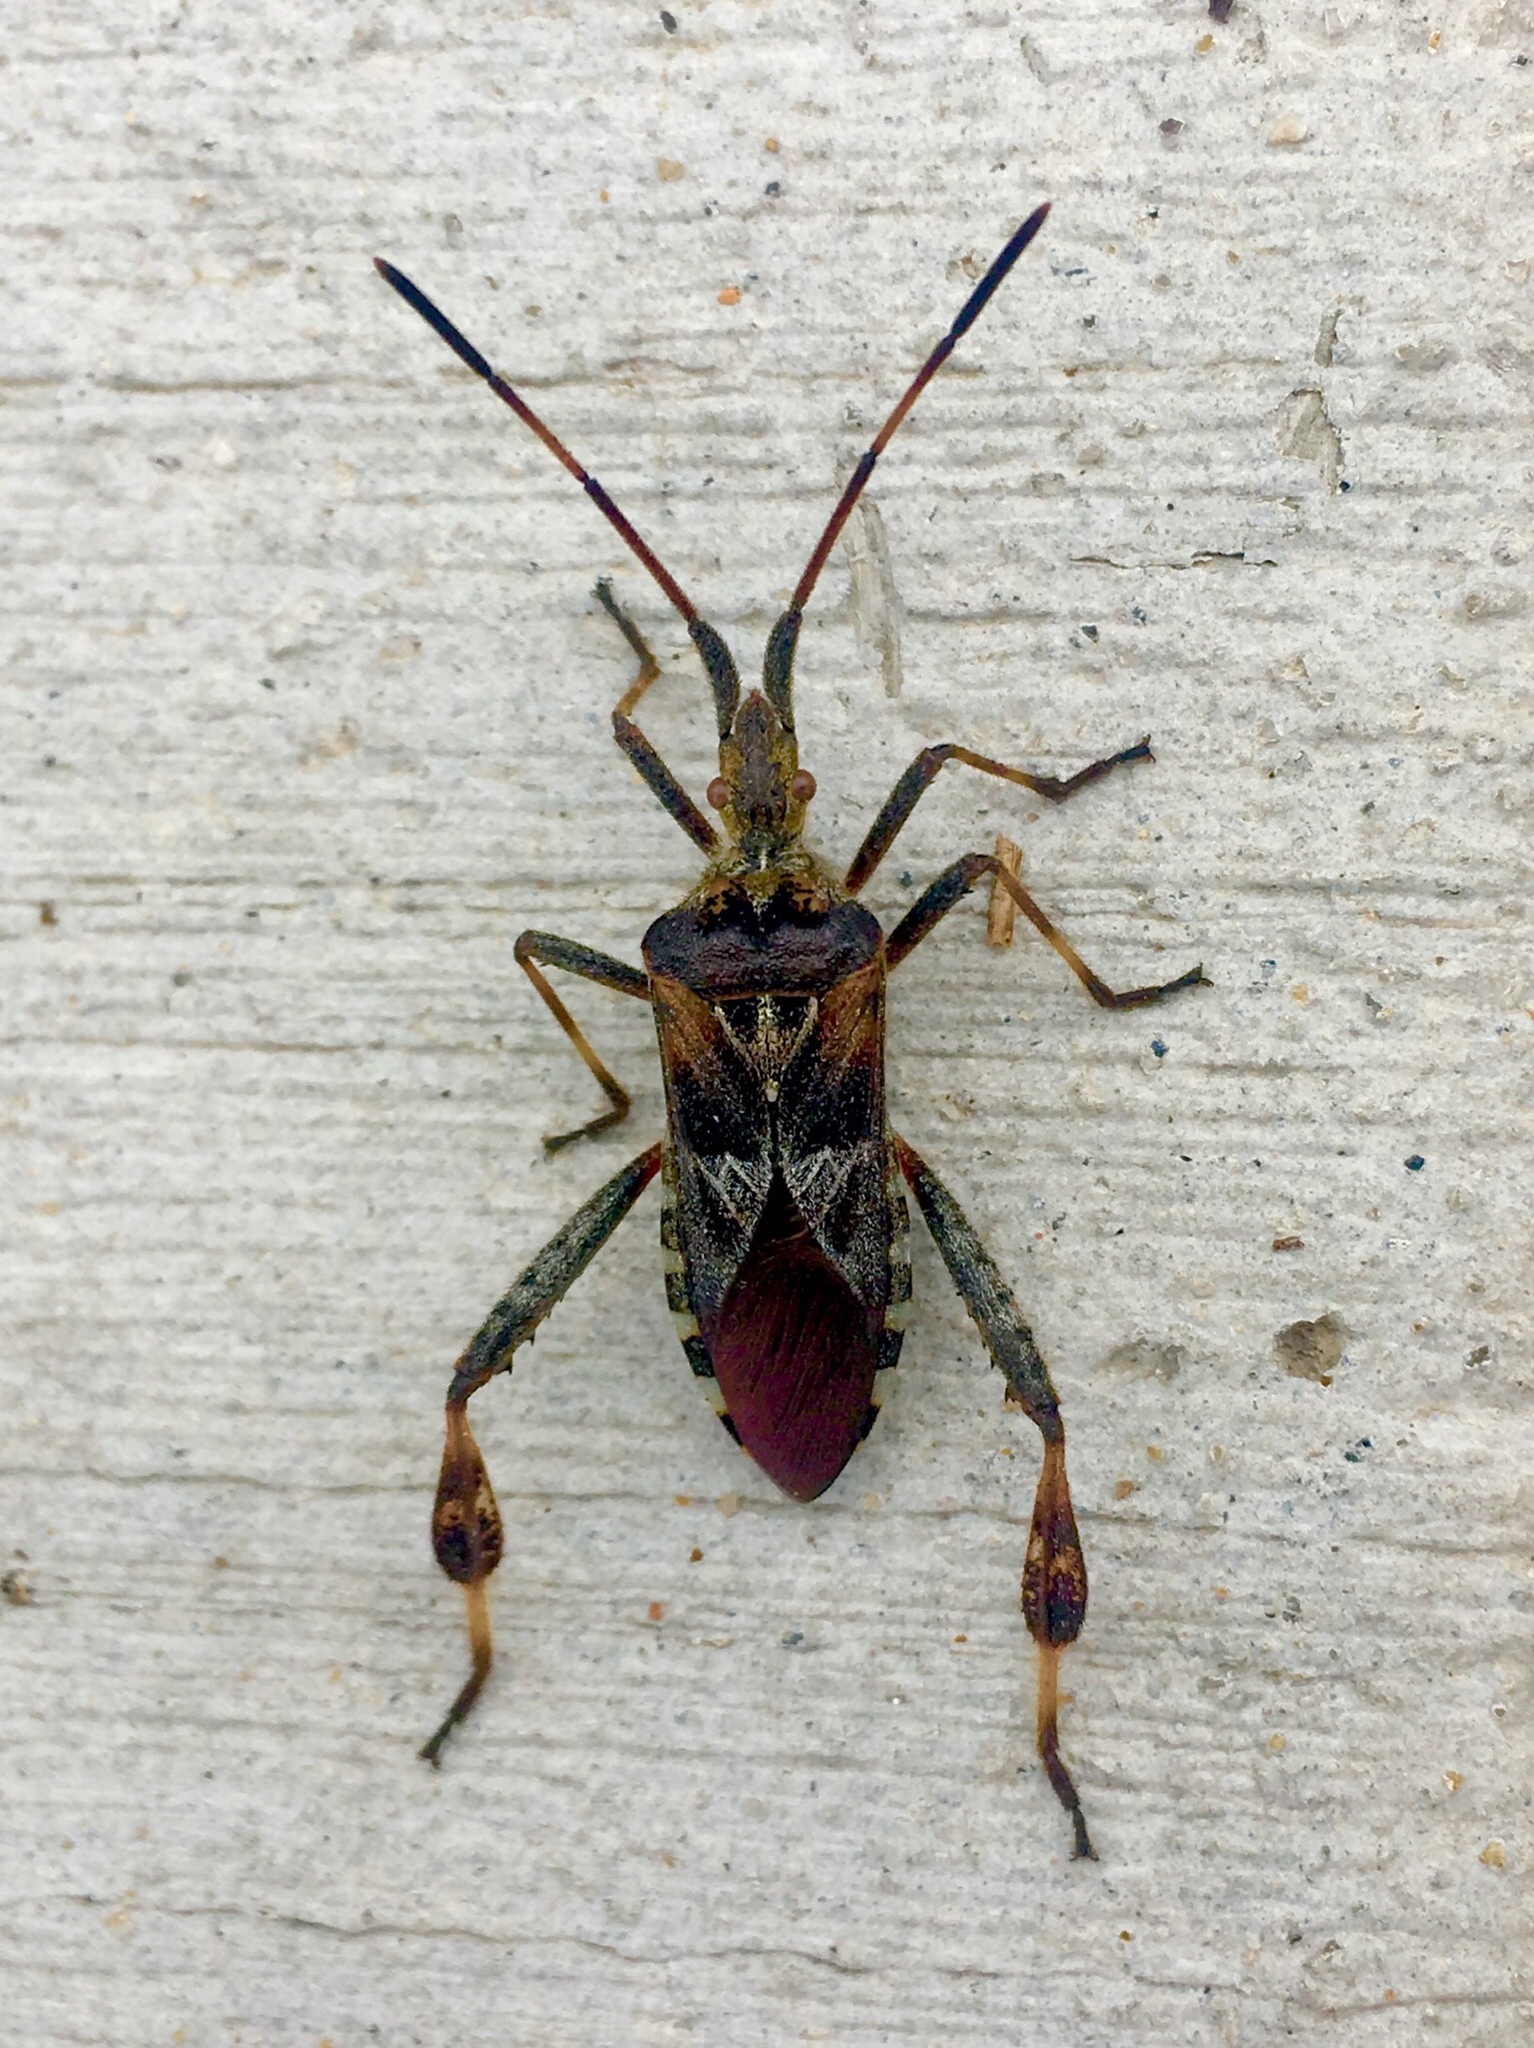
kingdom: Animalia
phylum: Arthropoda
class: Insecta
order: Hemiptera
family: Coreidae
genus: Leptoglossus
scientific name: Leptoglossus occidentalis
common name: Western conifer-seed bug
